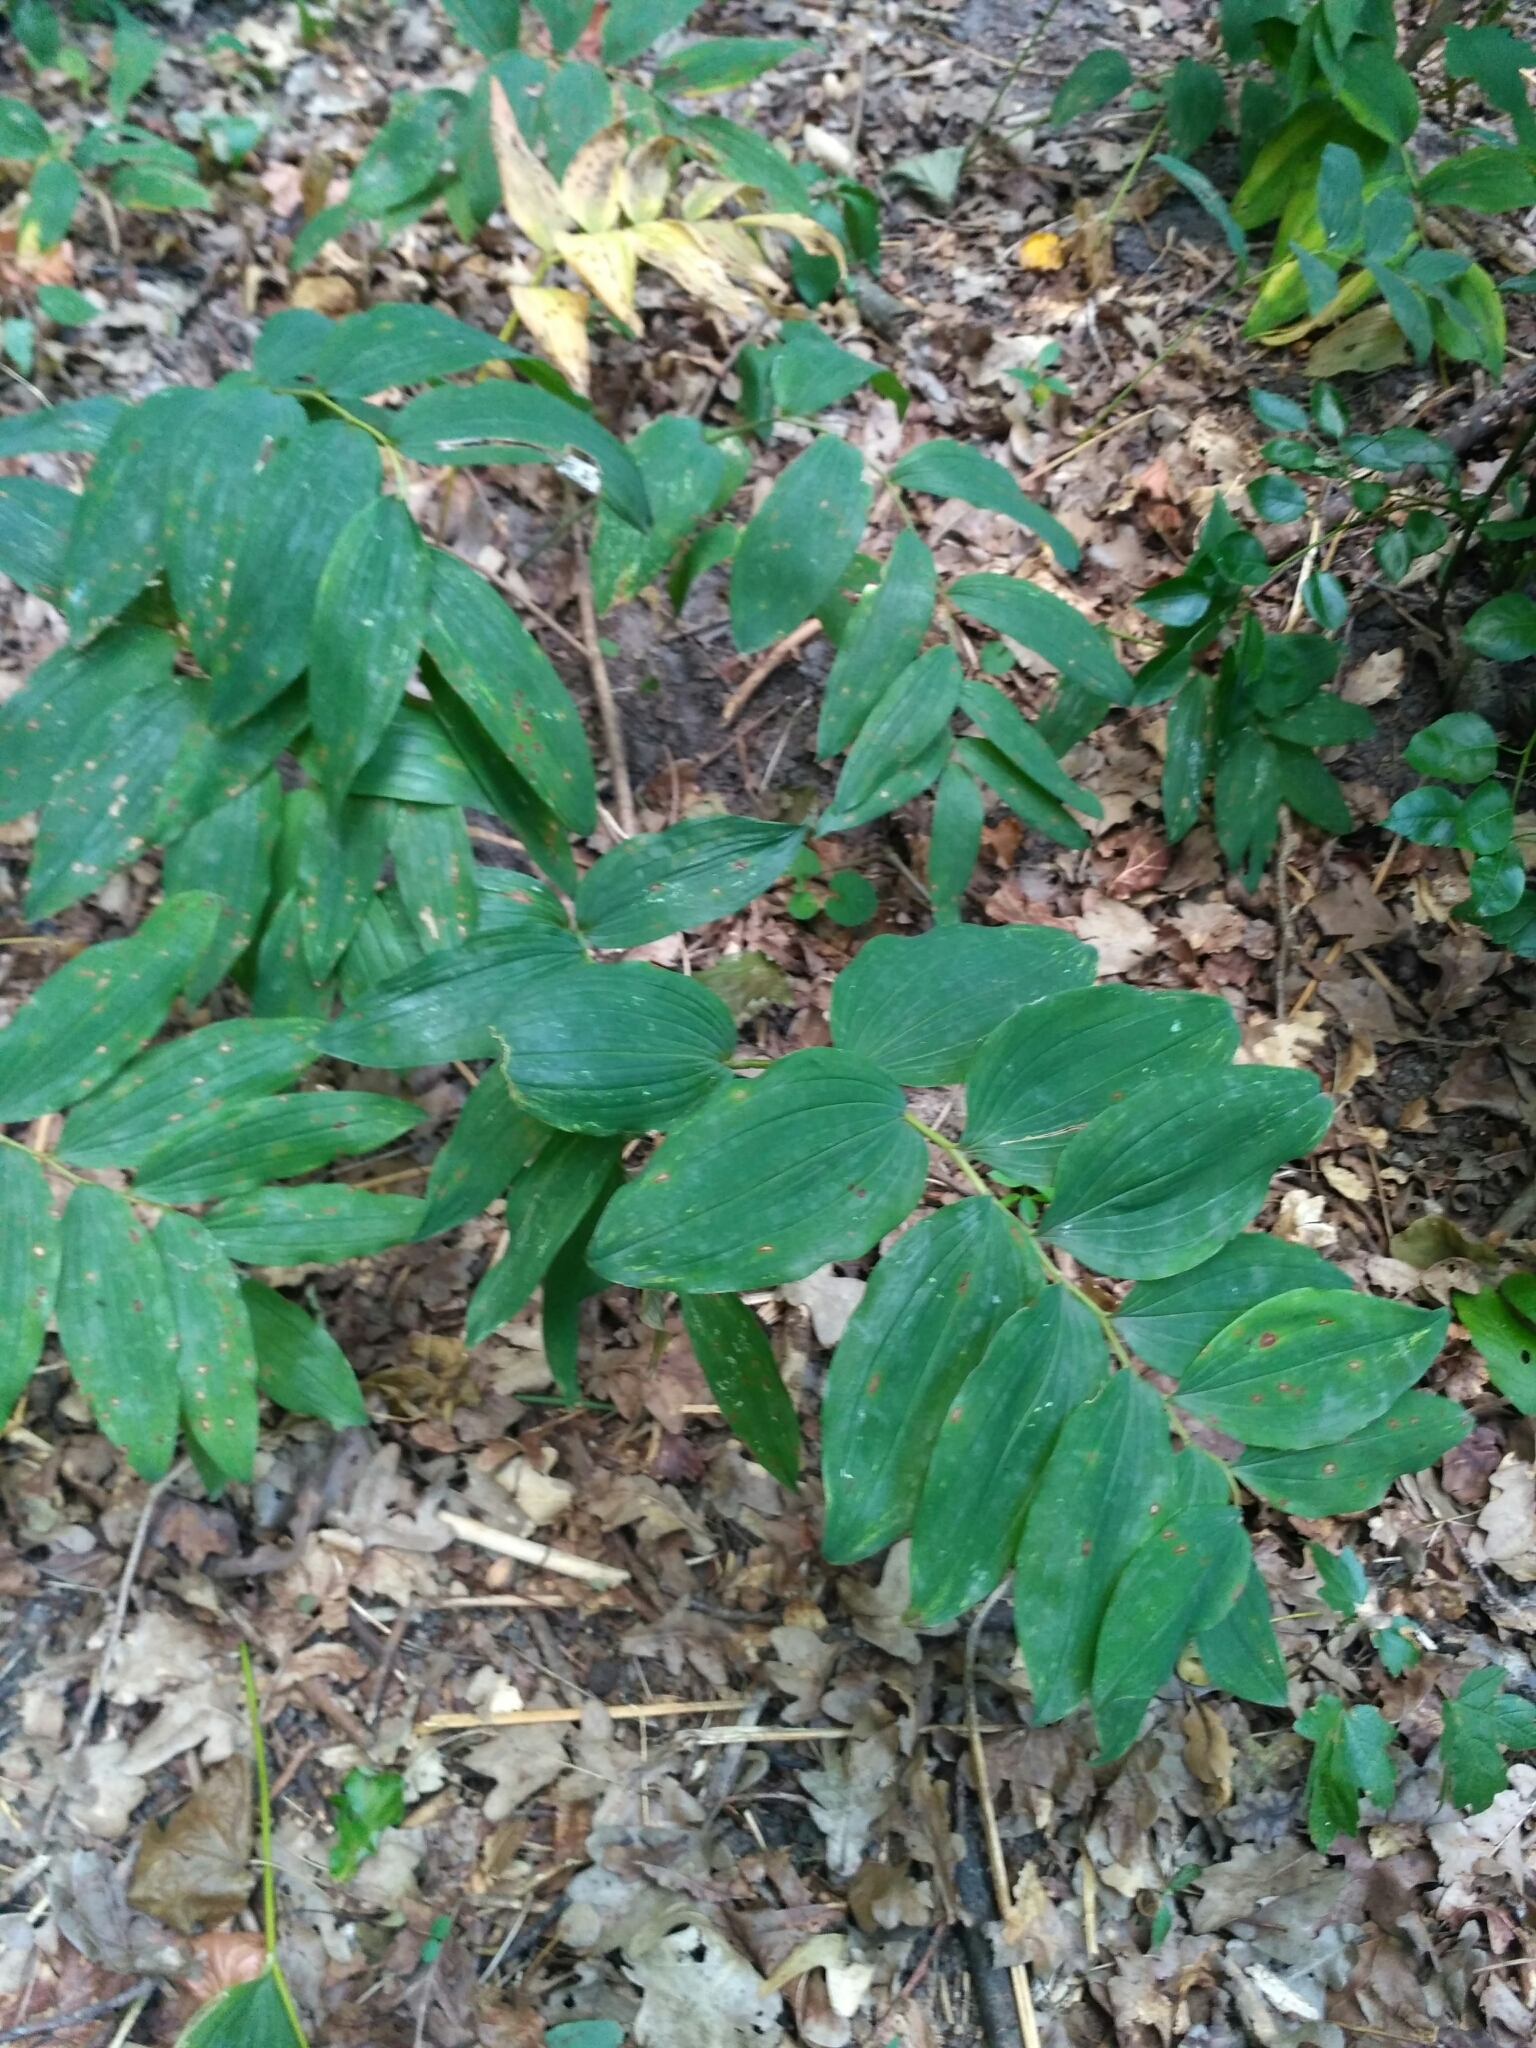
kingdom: Plantae
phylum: Tracheophyta
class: Liliopsida
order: Asparagales
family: Asparagaceae
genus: Polygonatum
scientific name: Polygonatum multiflorum
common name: Solomon's-seal
